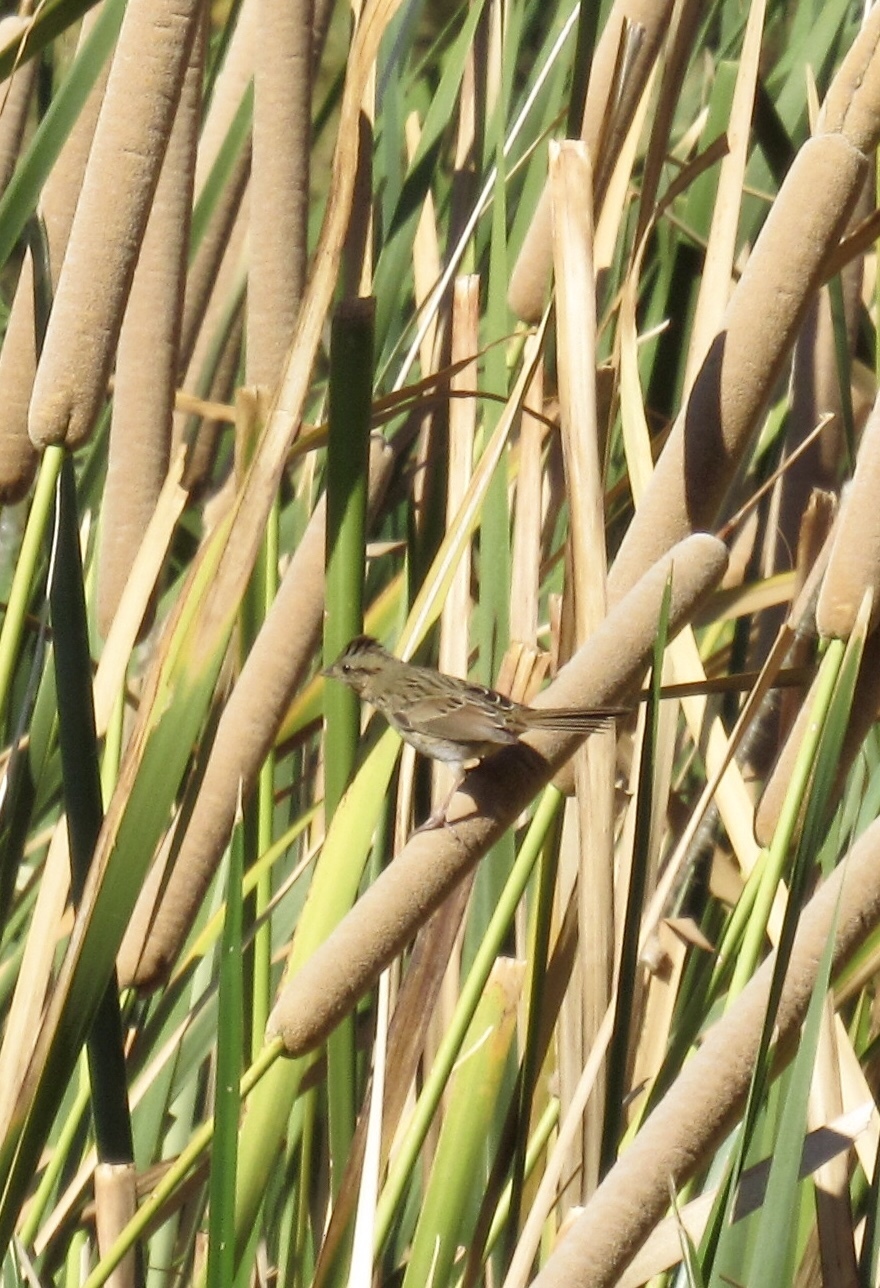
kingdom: Animalia
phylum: Chordata
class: Aves
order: Passeriformes
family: Passerellidae
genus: Melospiza
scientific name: Melospiza lincolnii
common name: Lincoln's sparrow
